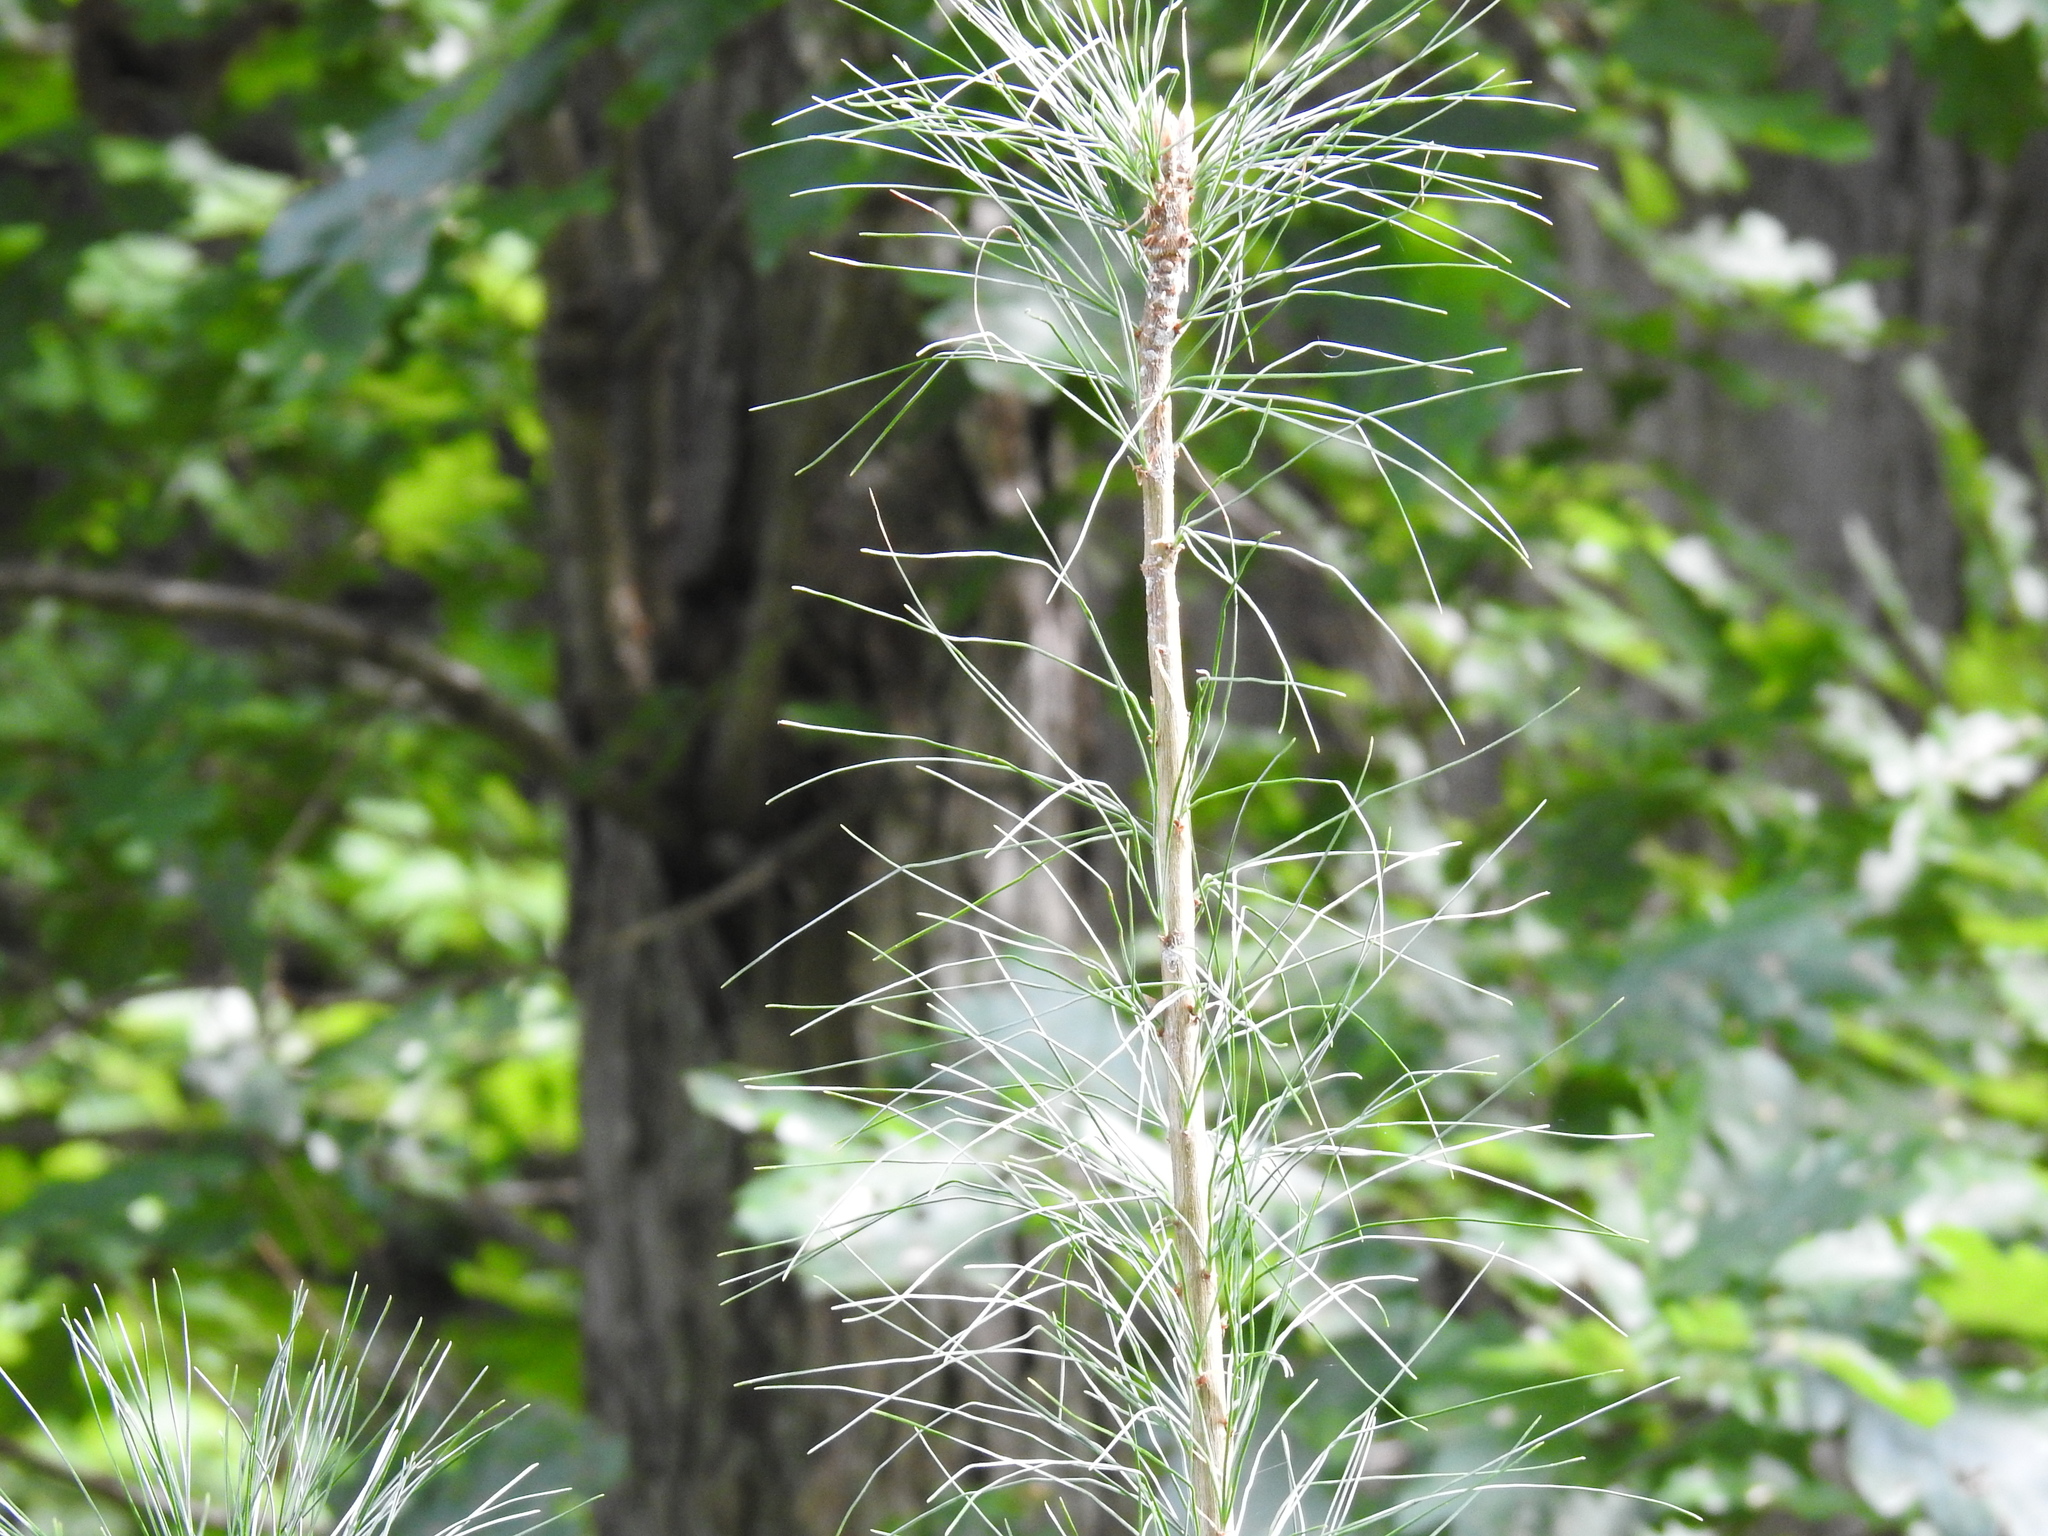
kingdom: Plantae
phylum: Tracheophyta
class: Pinopsida
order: Pinales
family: Pinaceae
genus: Pinus
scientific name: Pinus strobus
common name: Weymouth pine
